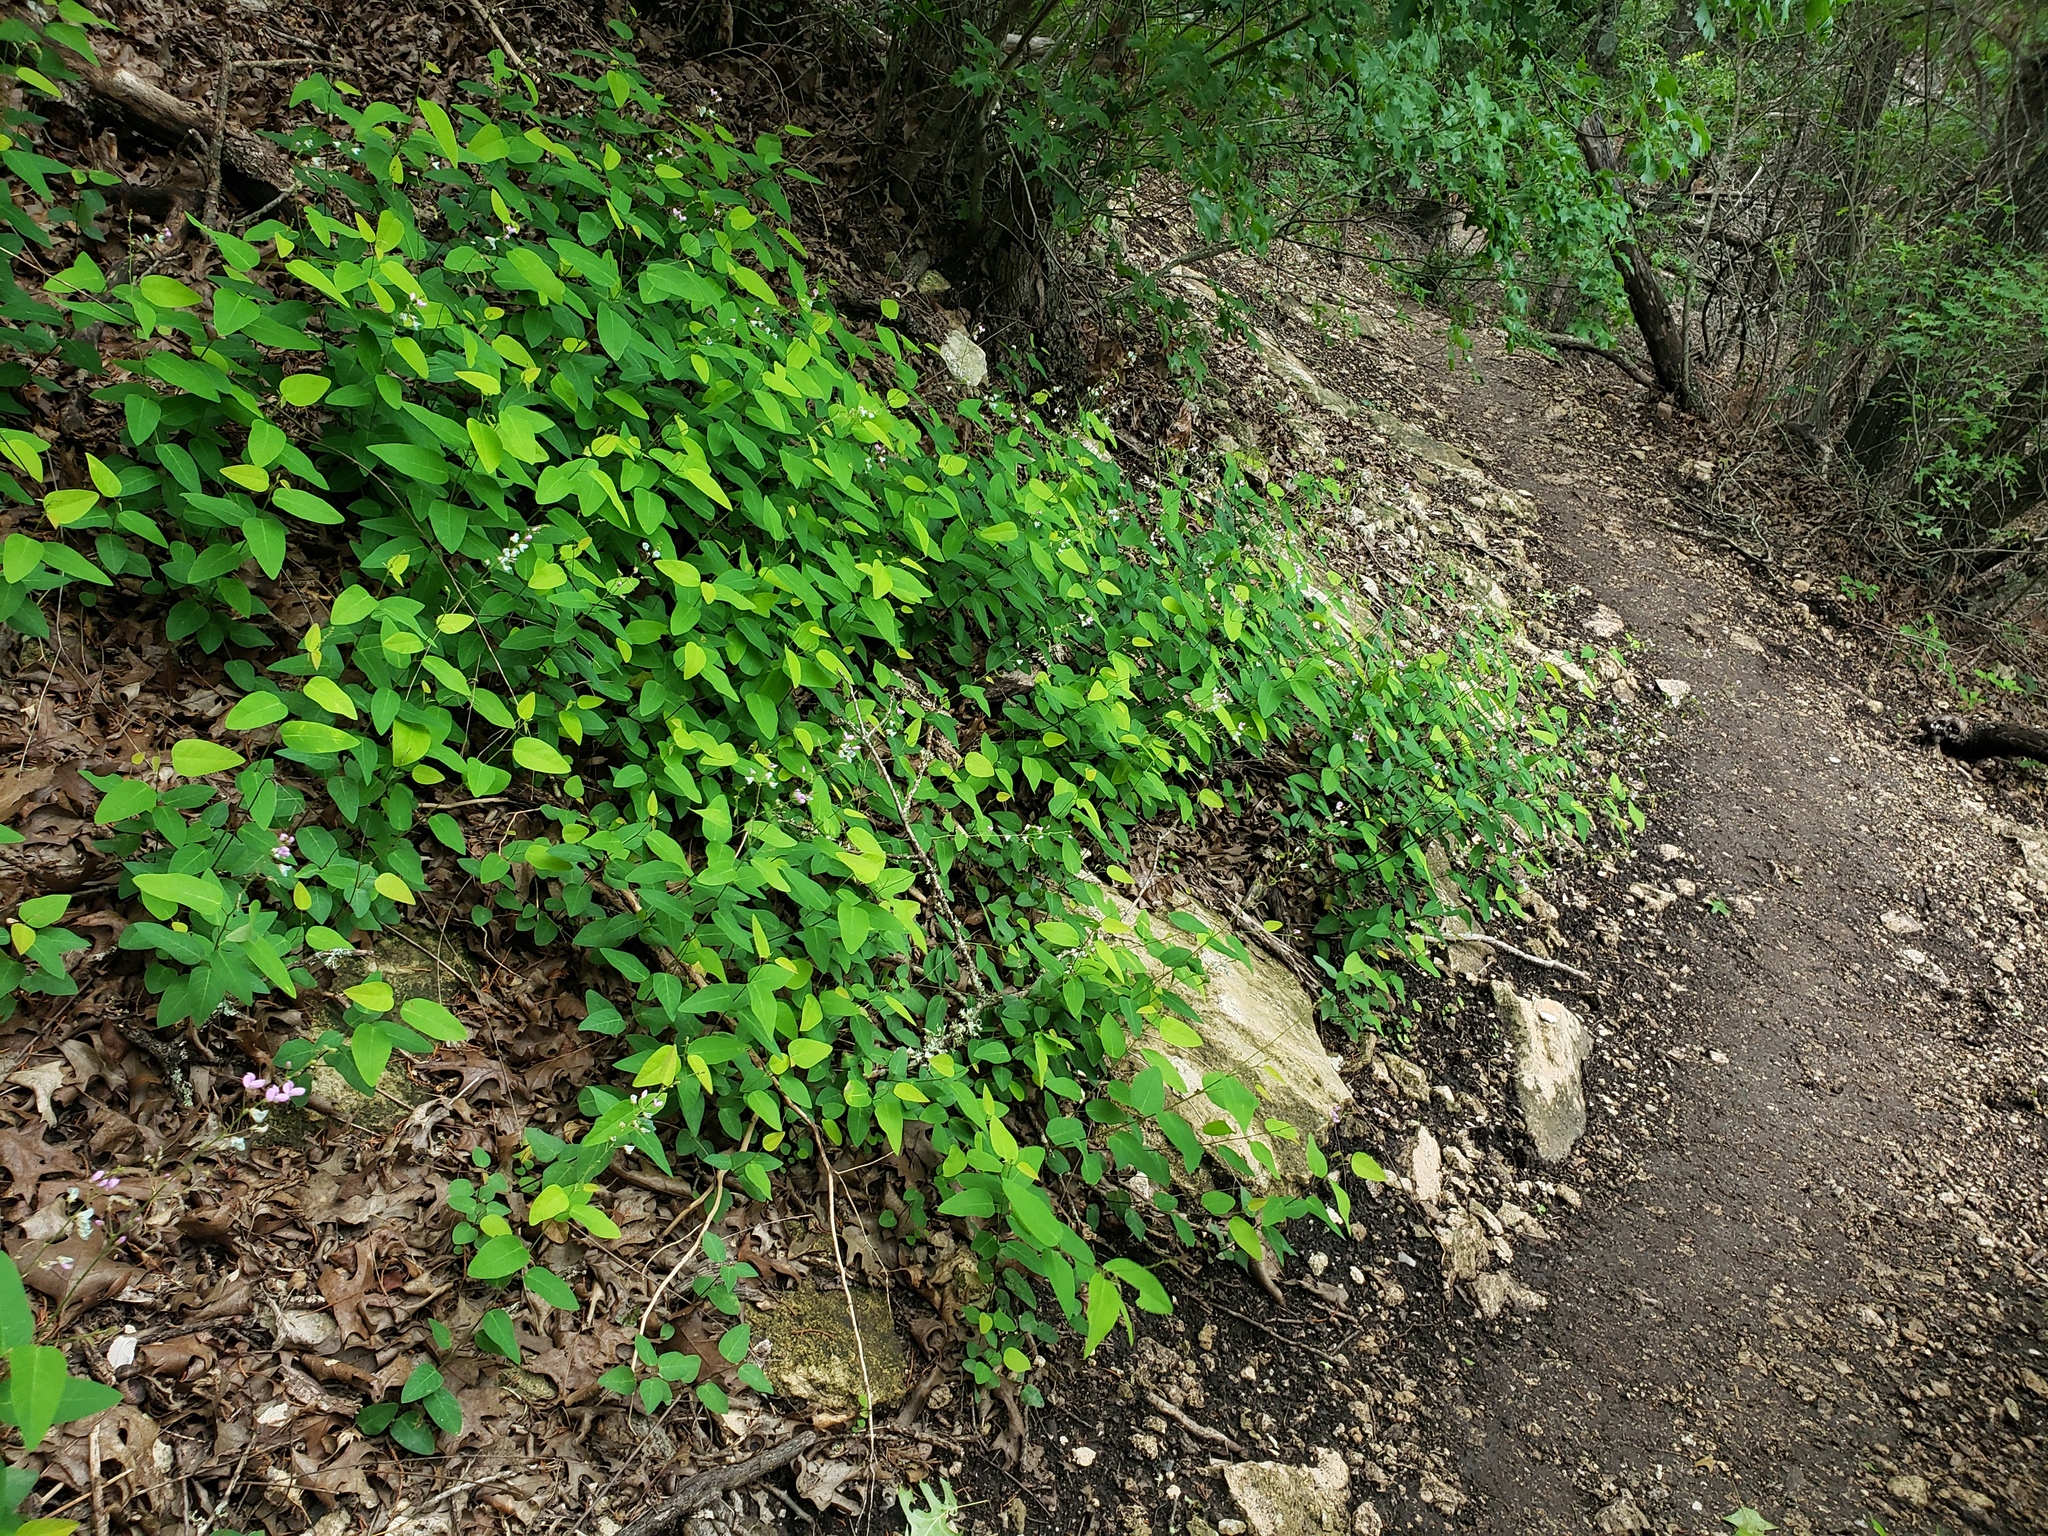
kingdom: Plantae
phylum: Tracheophyta
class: Magnoliopsida
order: Fabales
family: Fabaceae
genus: Desmodium
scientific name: Desmodium psilophyllum
